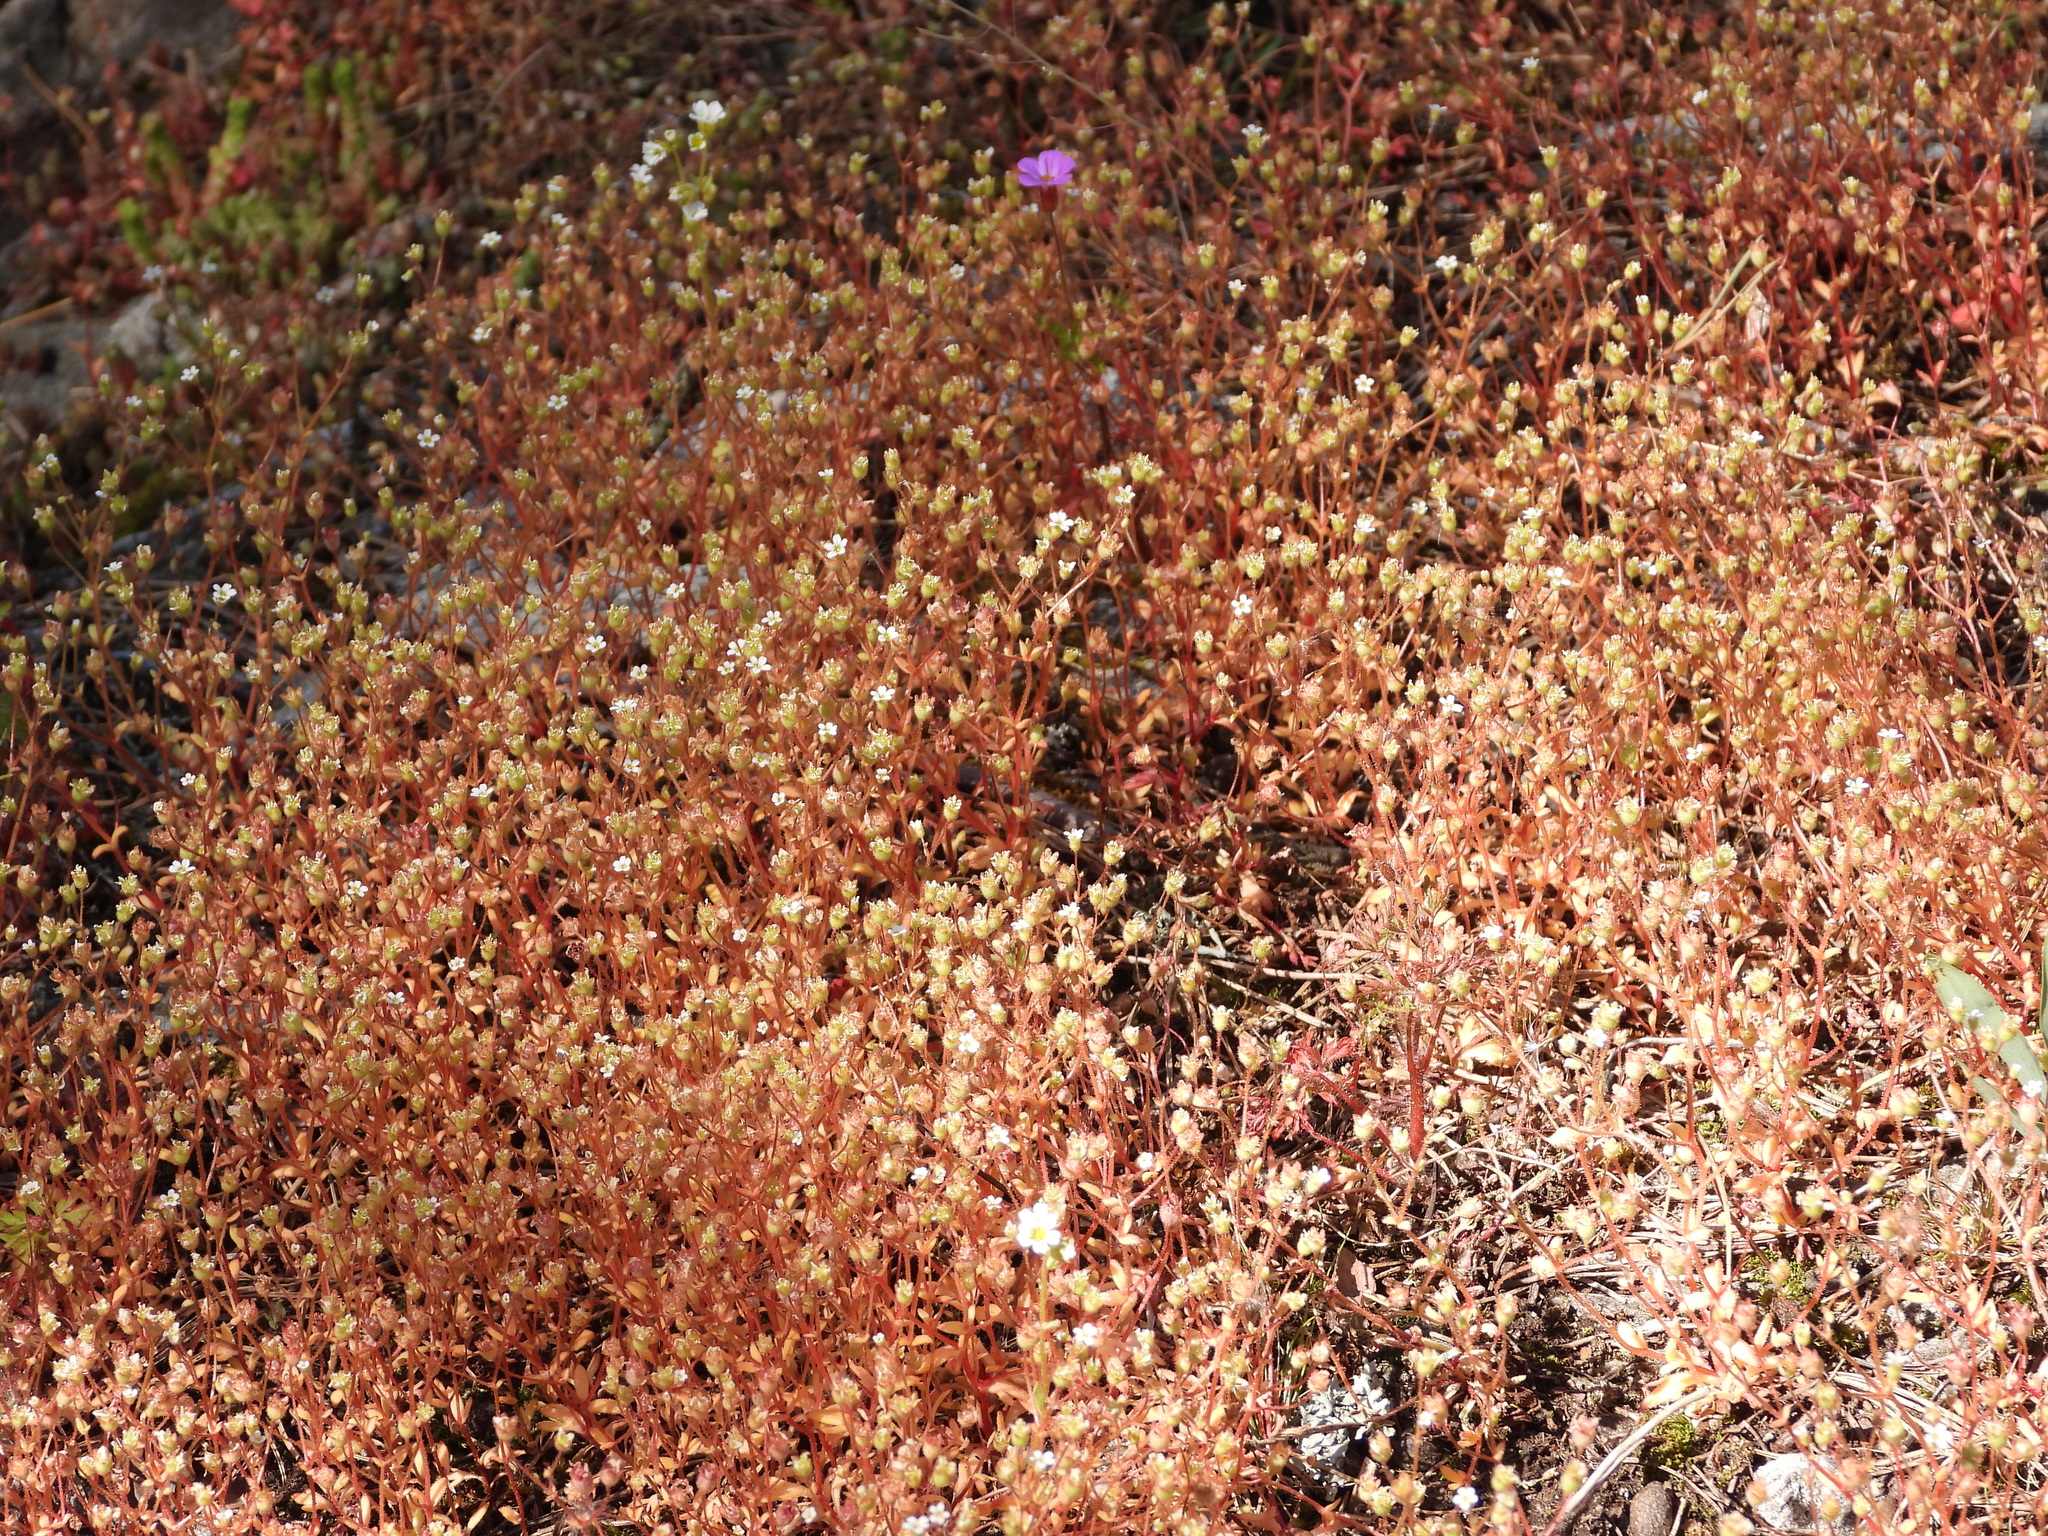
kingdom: Plantae
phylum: Tracheophyta
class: Magnoliopsida
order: Saxifragales
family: Saxifragaceae
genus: Saxifraga
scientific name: Saxifraga tridactylites
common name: Rue-leaved saxifrage
